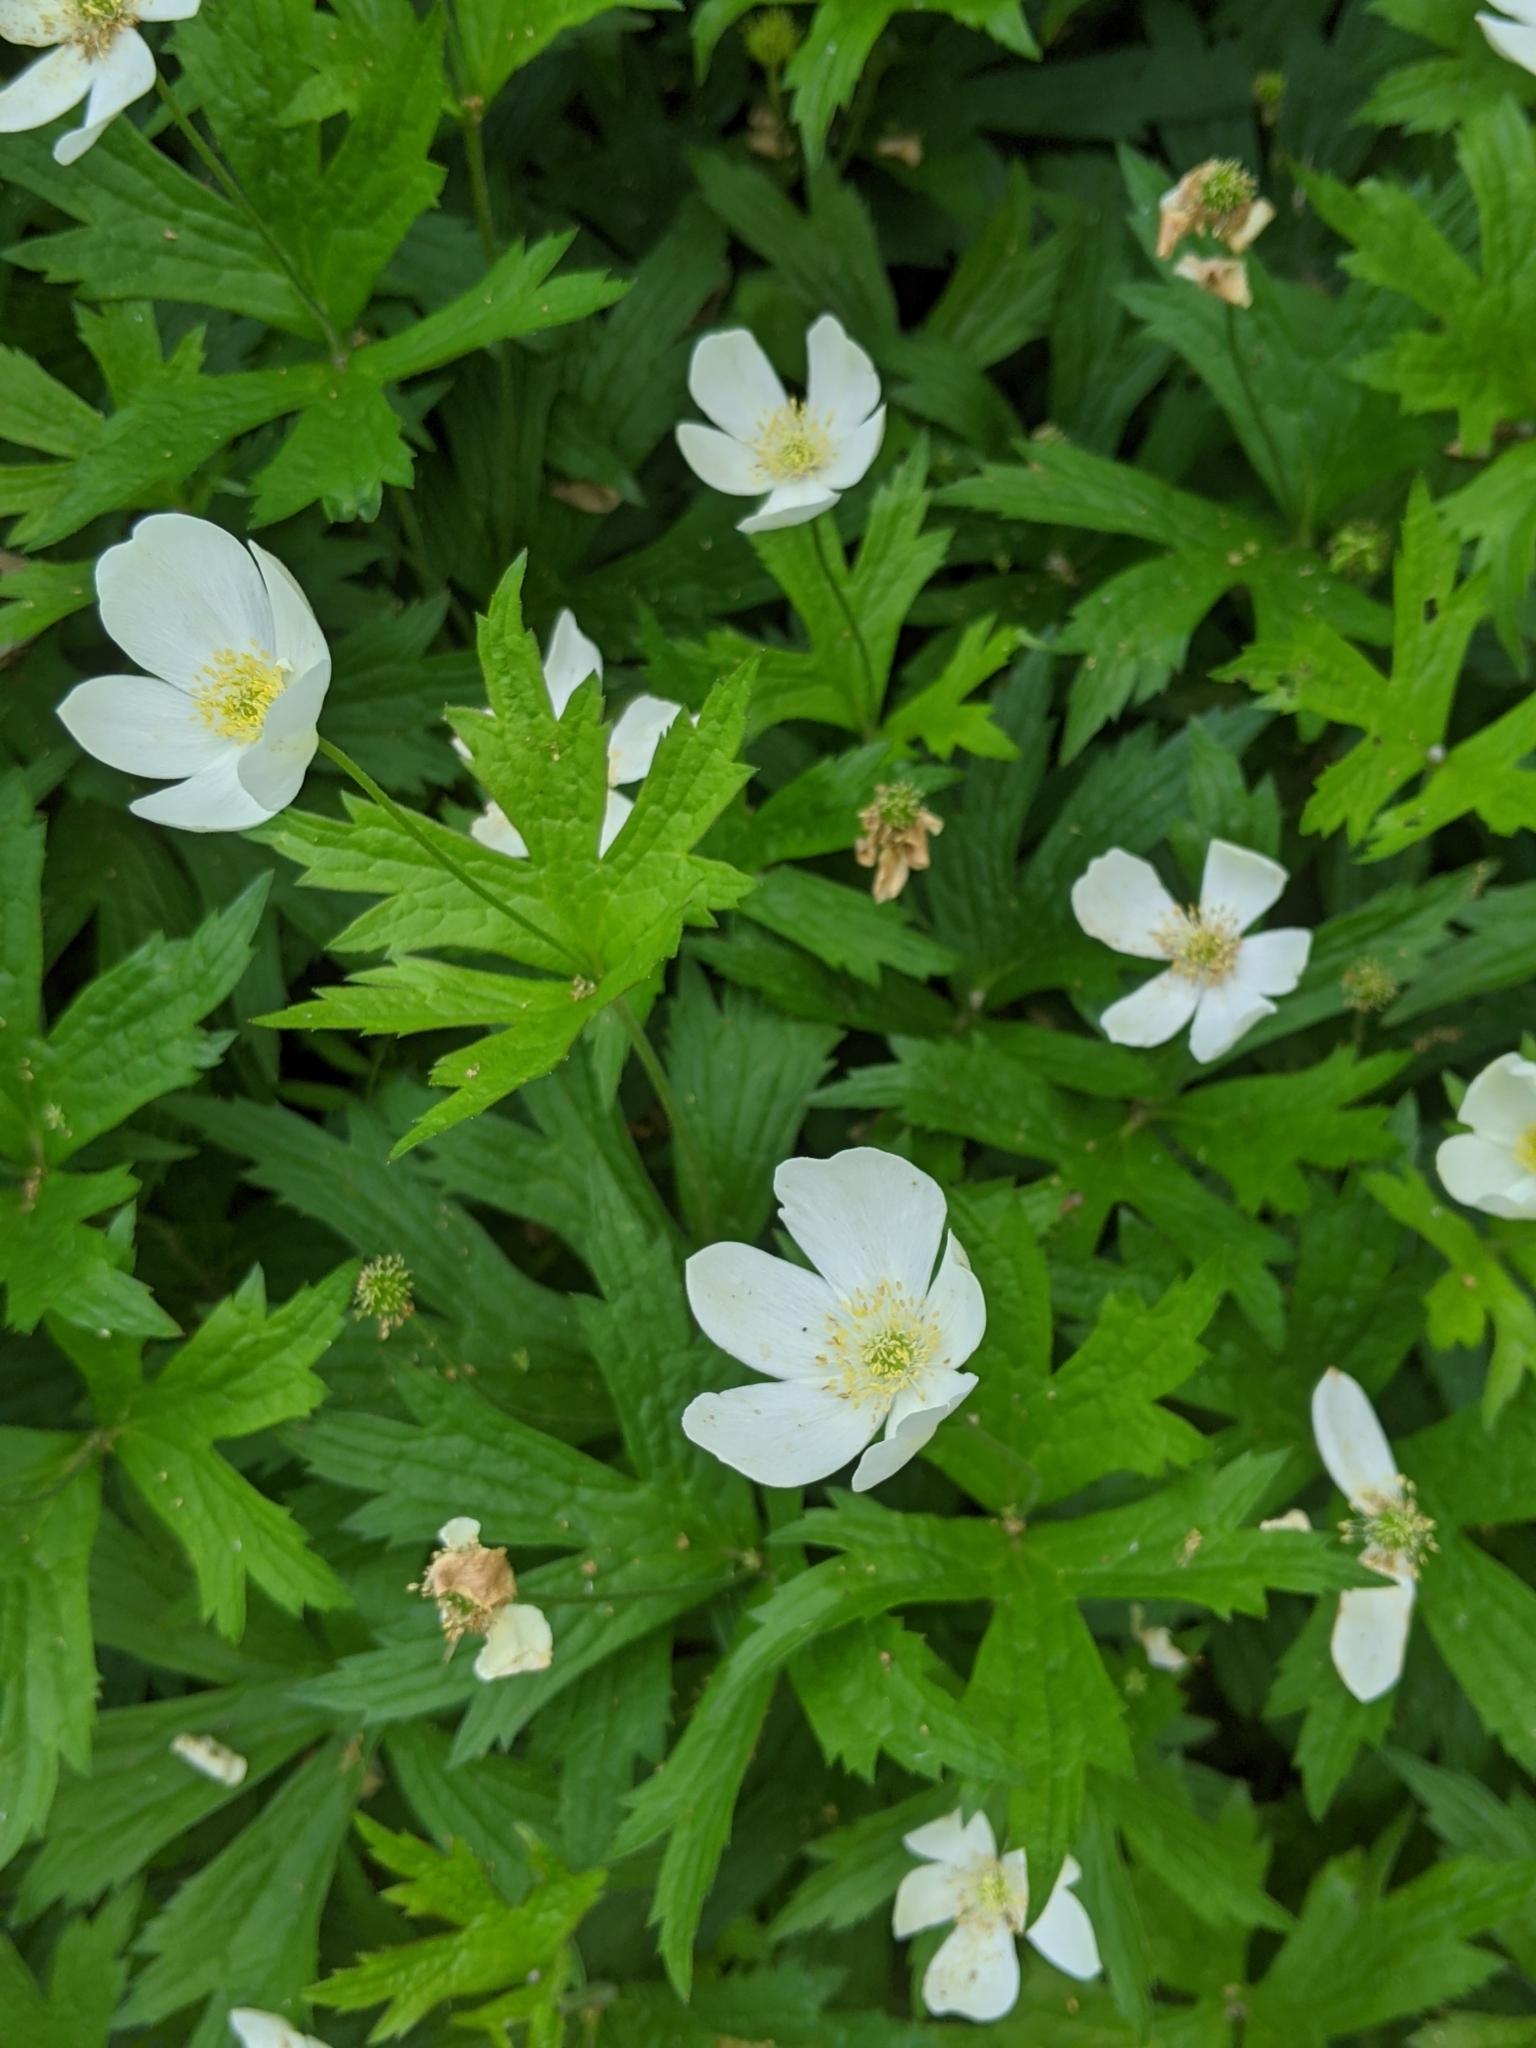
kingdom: Plantae
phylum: Tracheophyta
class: Magnoliopsida
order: Ranunculales
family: Ranunculaceae
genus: Anemonastrum
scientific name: Anemonastrum canadense
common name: Canada anemone
